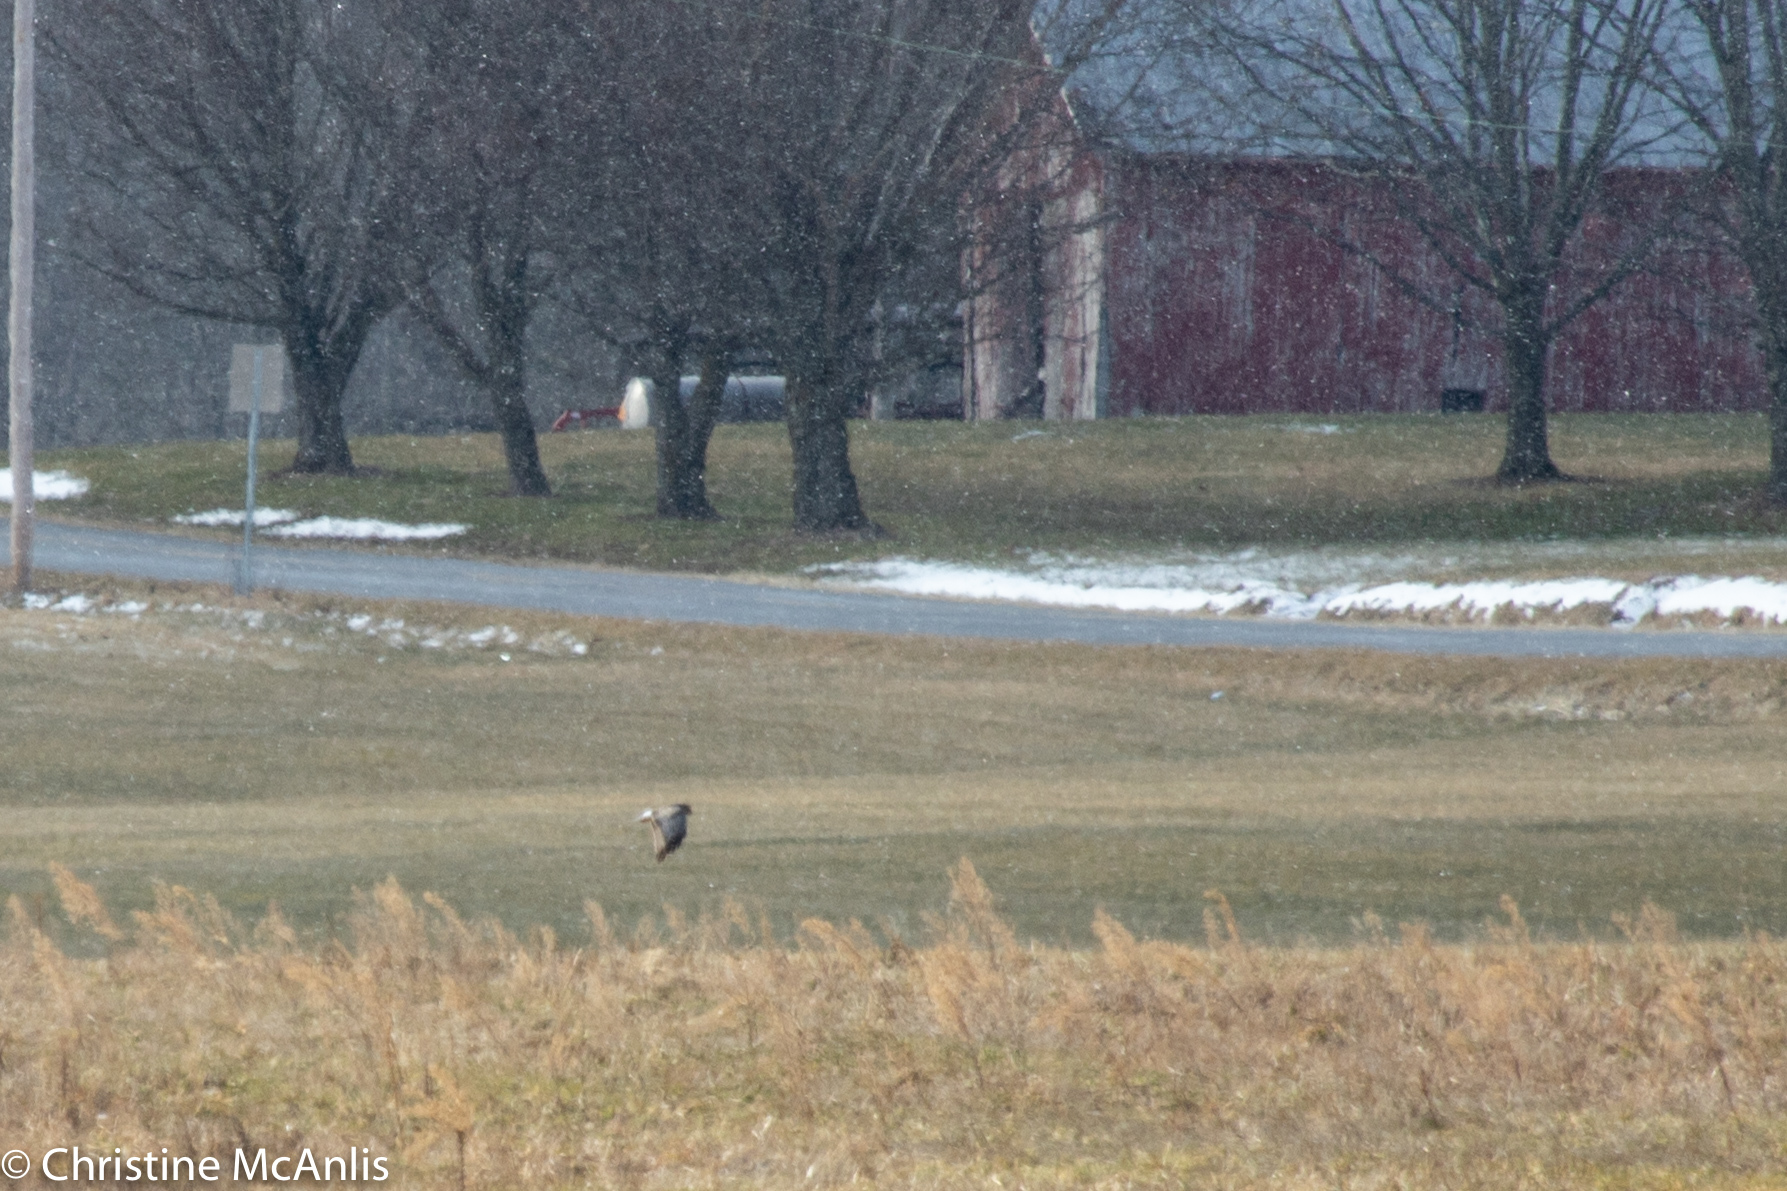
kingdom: Animalia
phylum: Chordata
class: Aves
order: Accipitriformes
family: Accipitridae
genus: Circus
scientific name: Circus cyaneus
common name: Hen harrier
